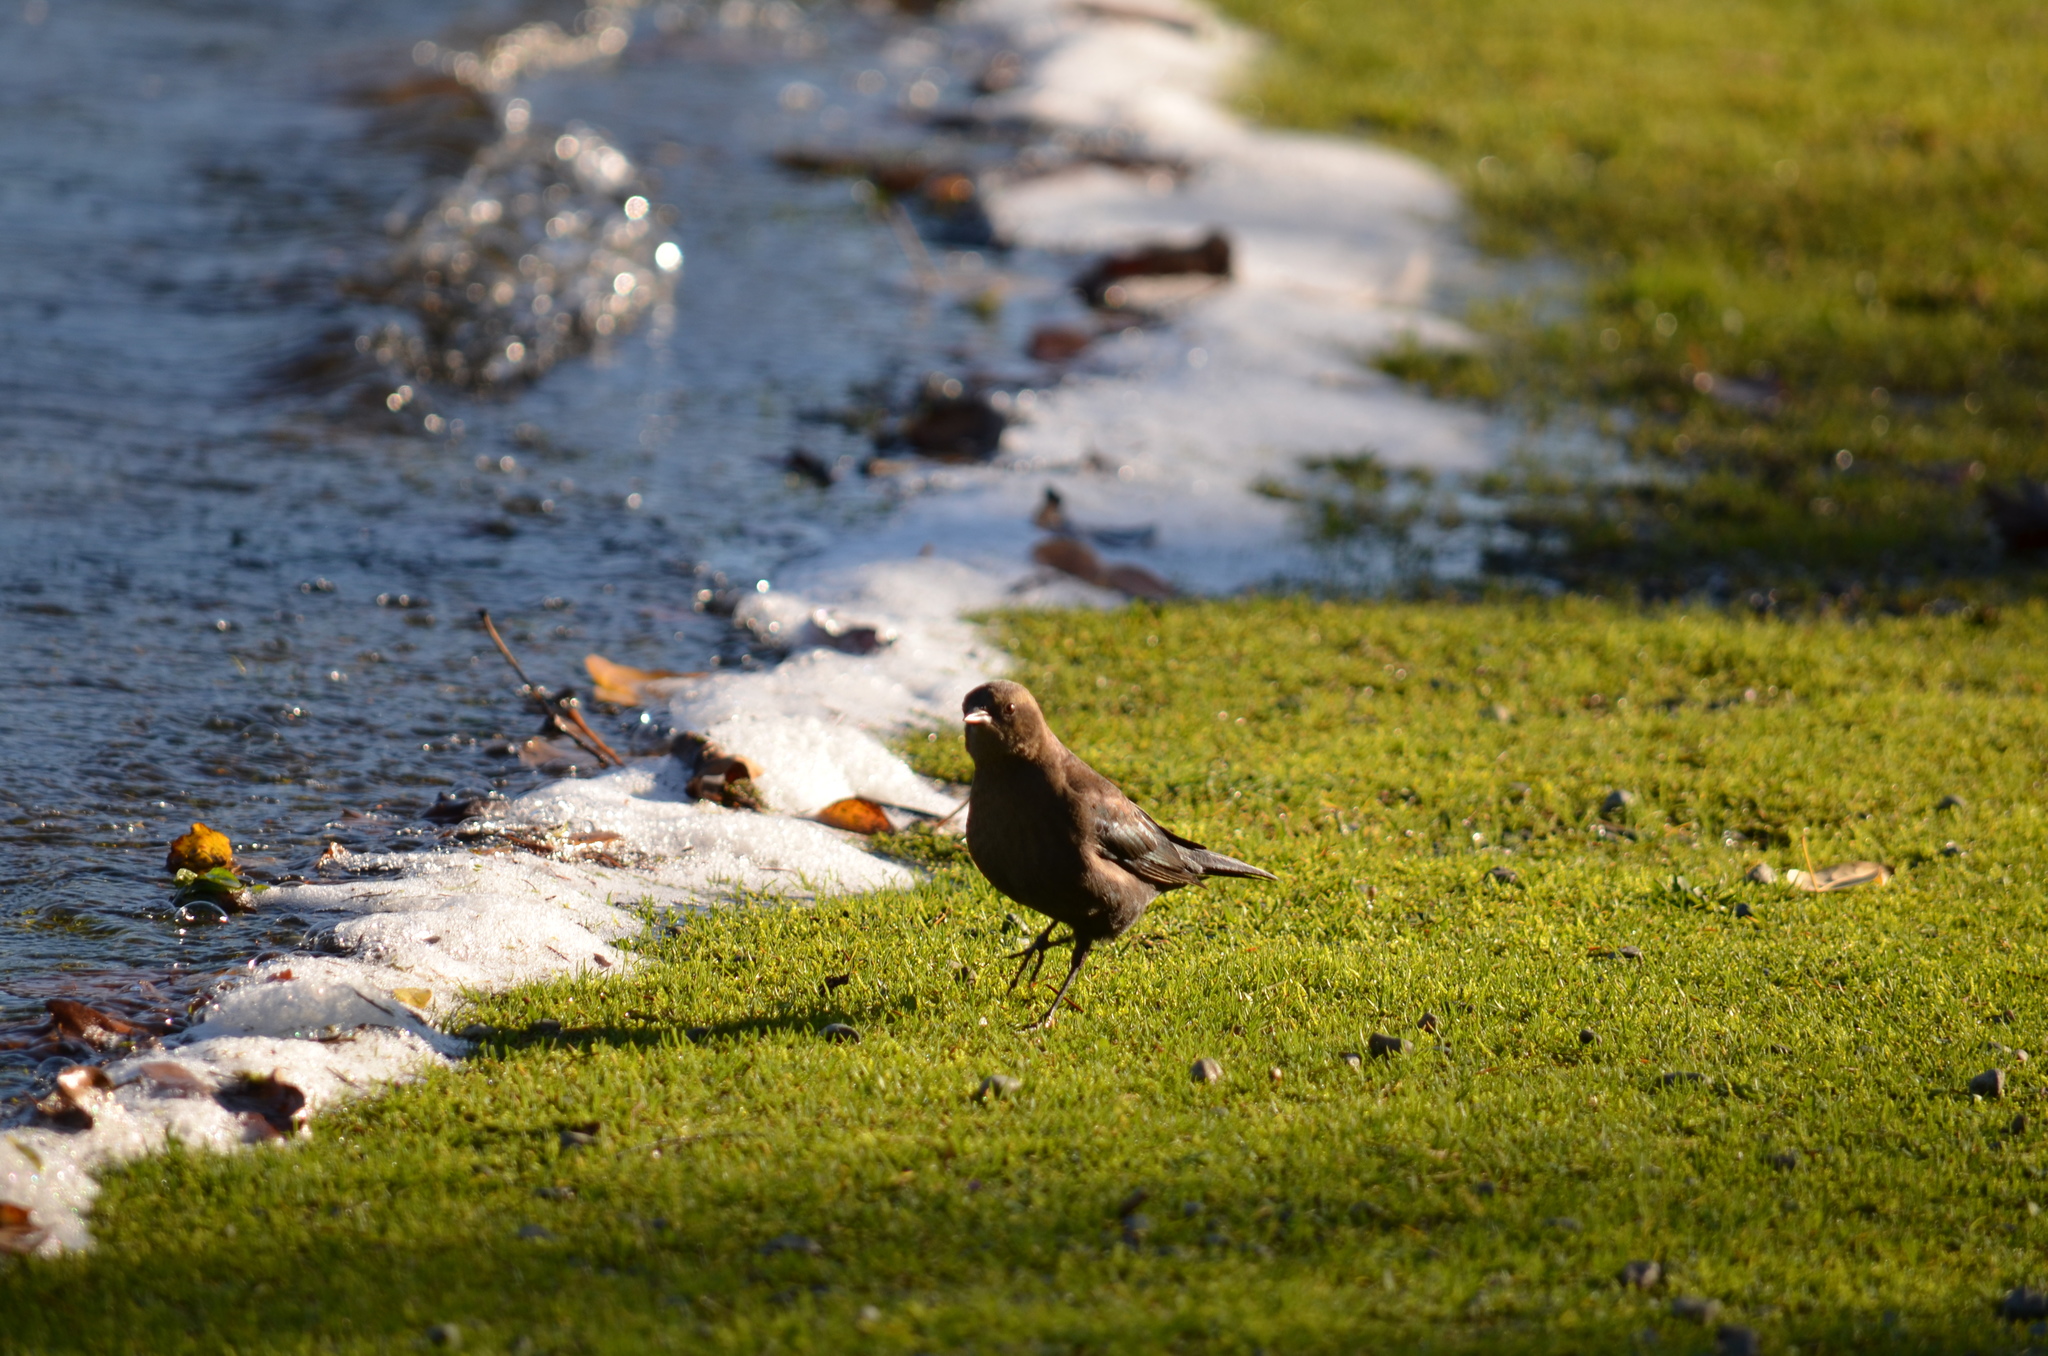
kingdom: Animalia
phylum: Chordata
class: Aves
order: Passeriformes
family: Icteridae
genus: Euphagus
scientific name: Euphagus cyanocephalus
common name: Brewer's blackbird
